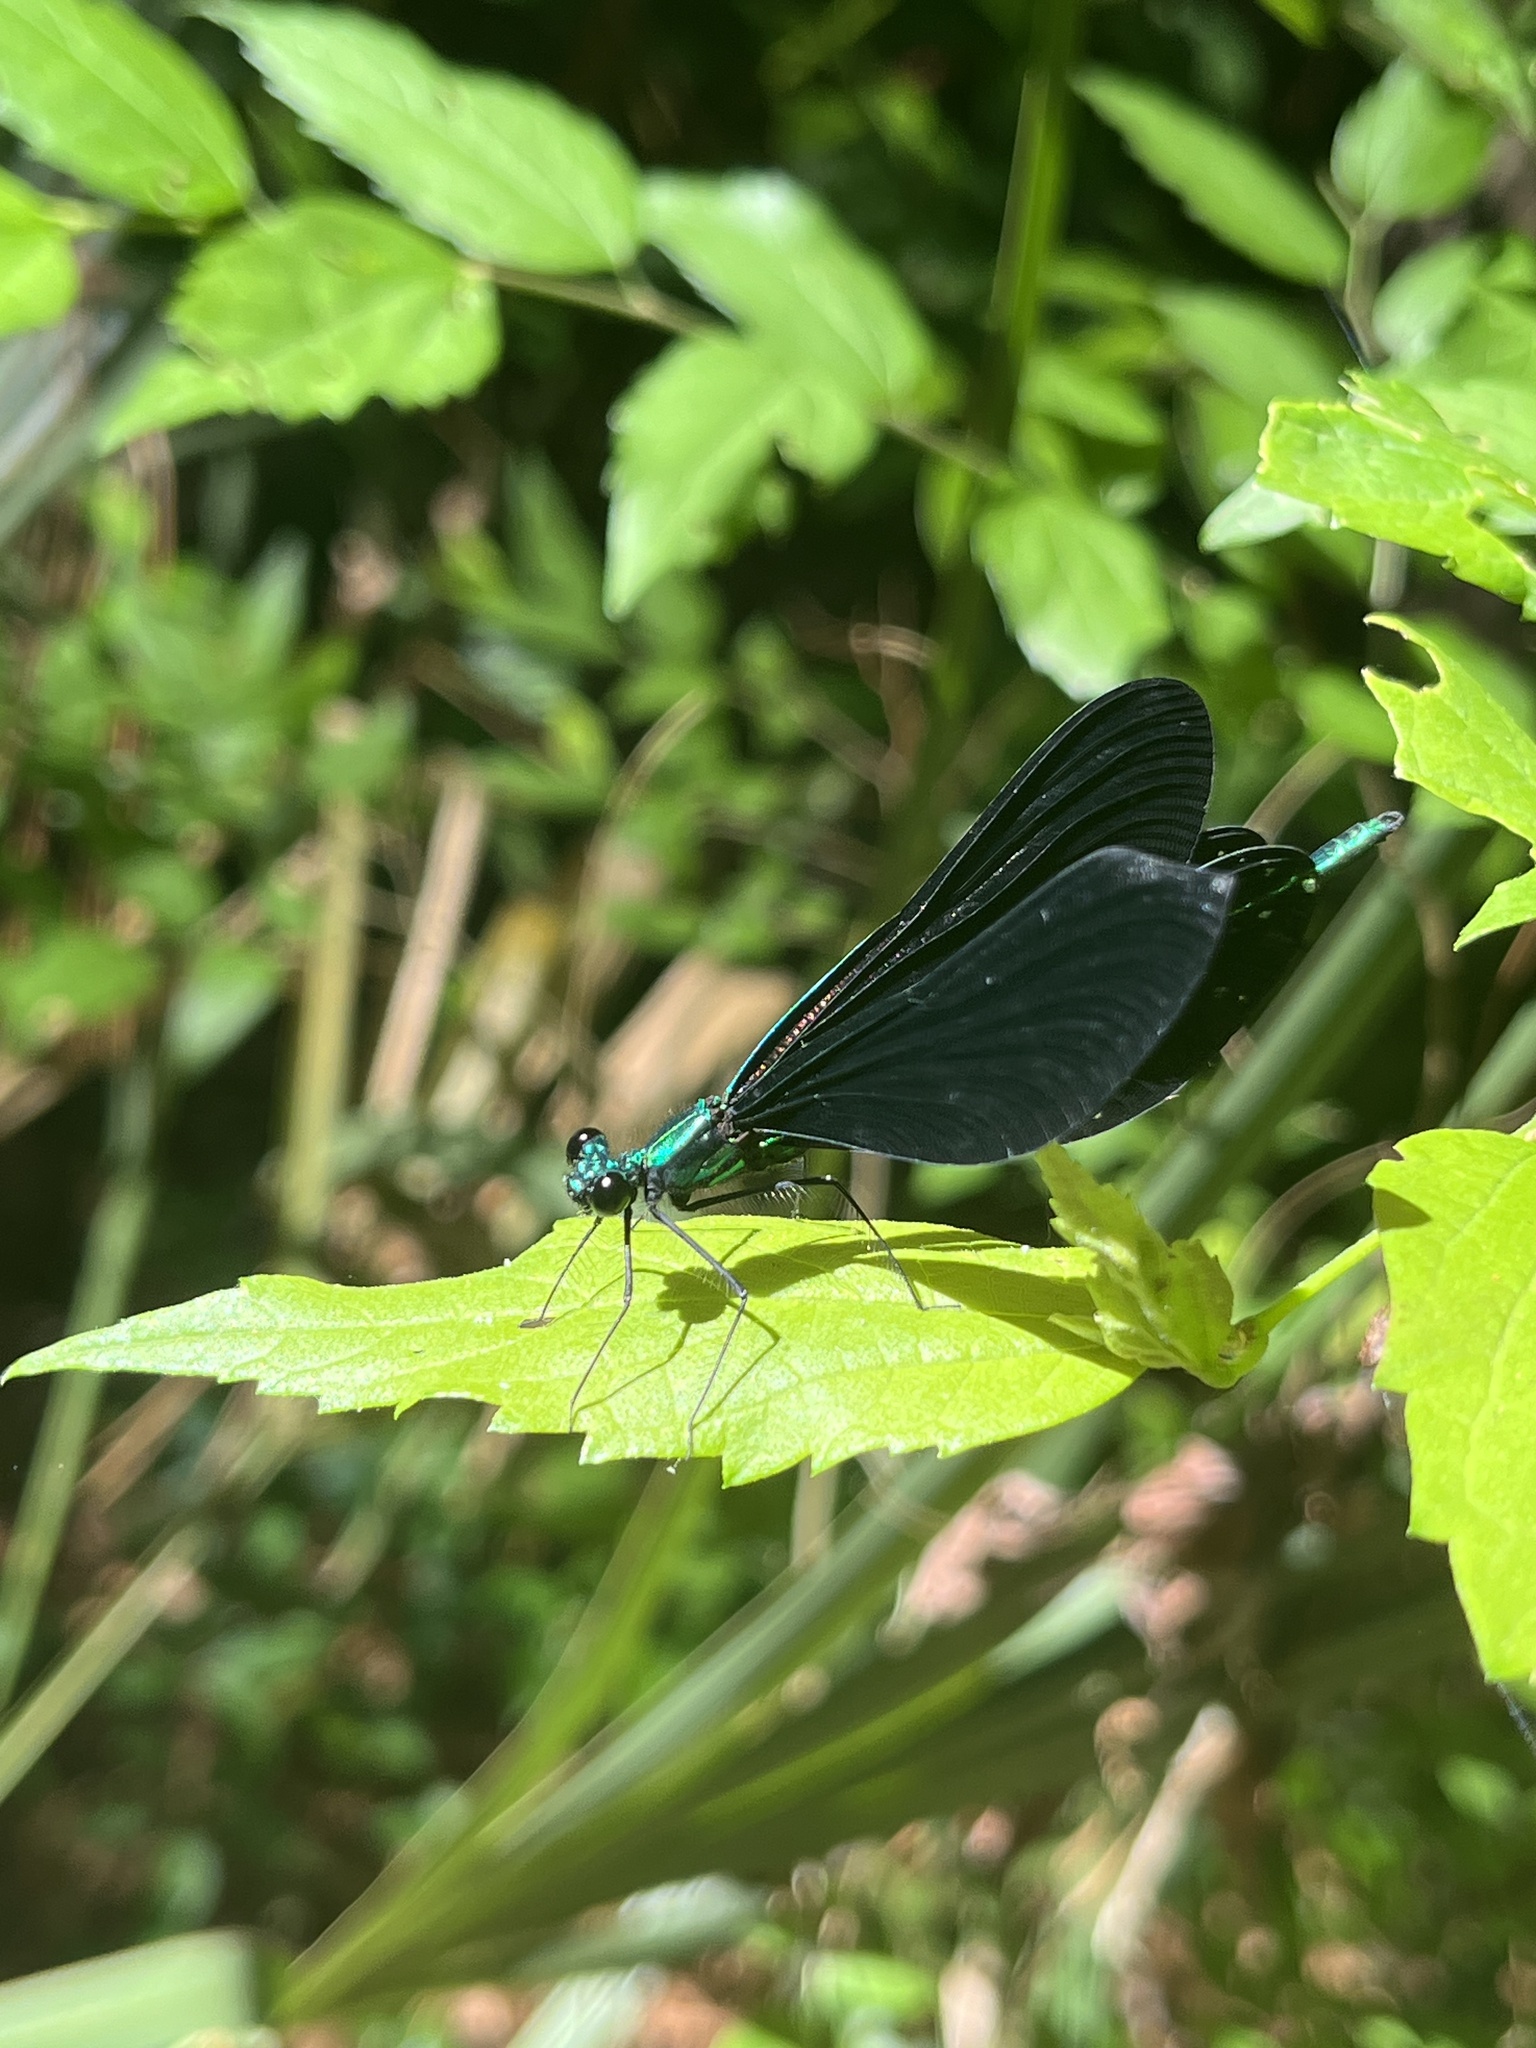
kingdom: Animalia
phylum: Arthropoda
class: Insecta
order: Odonata
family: Calopterygidae
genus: Calopteryx
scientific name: Calopteryx maculata
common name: Ebony jewelwing
